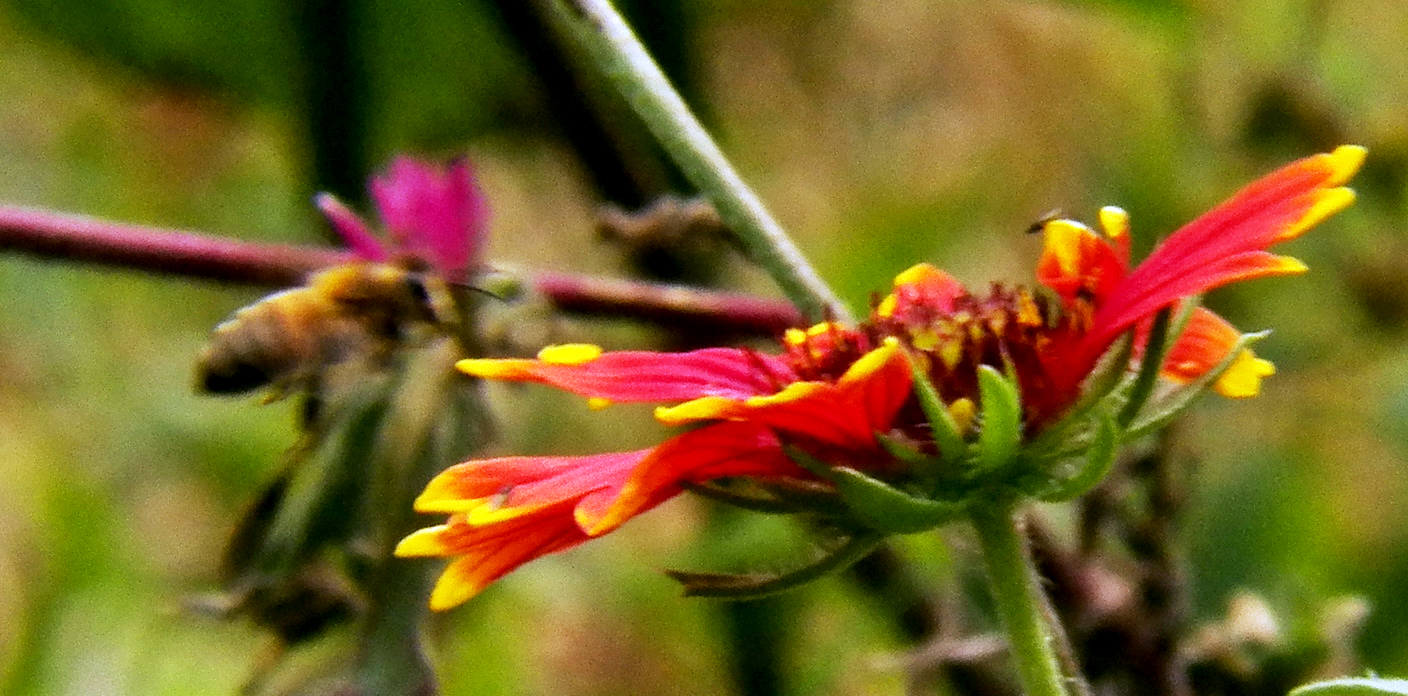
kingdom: Animalia
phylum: Arthropoda
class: Insecta
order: Hymenoptera
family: Apidae
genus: Apis
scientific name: Apis mellifera
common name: Honey bee
